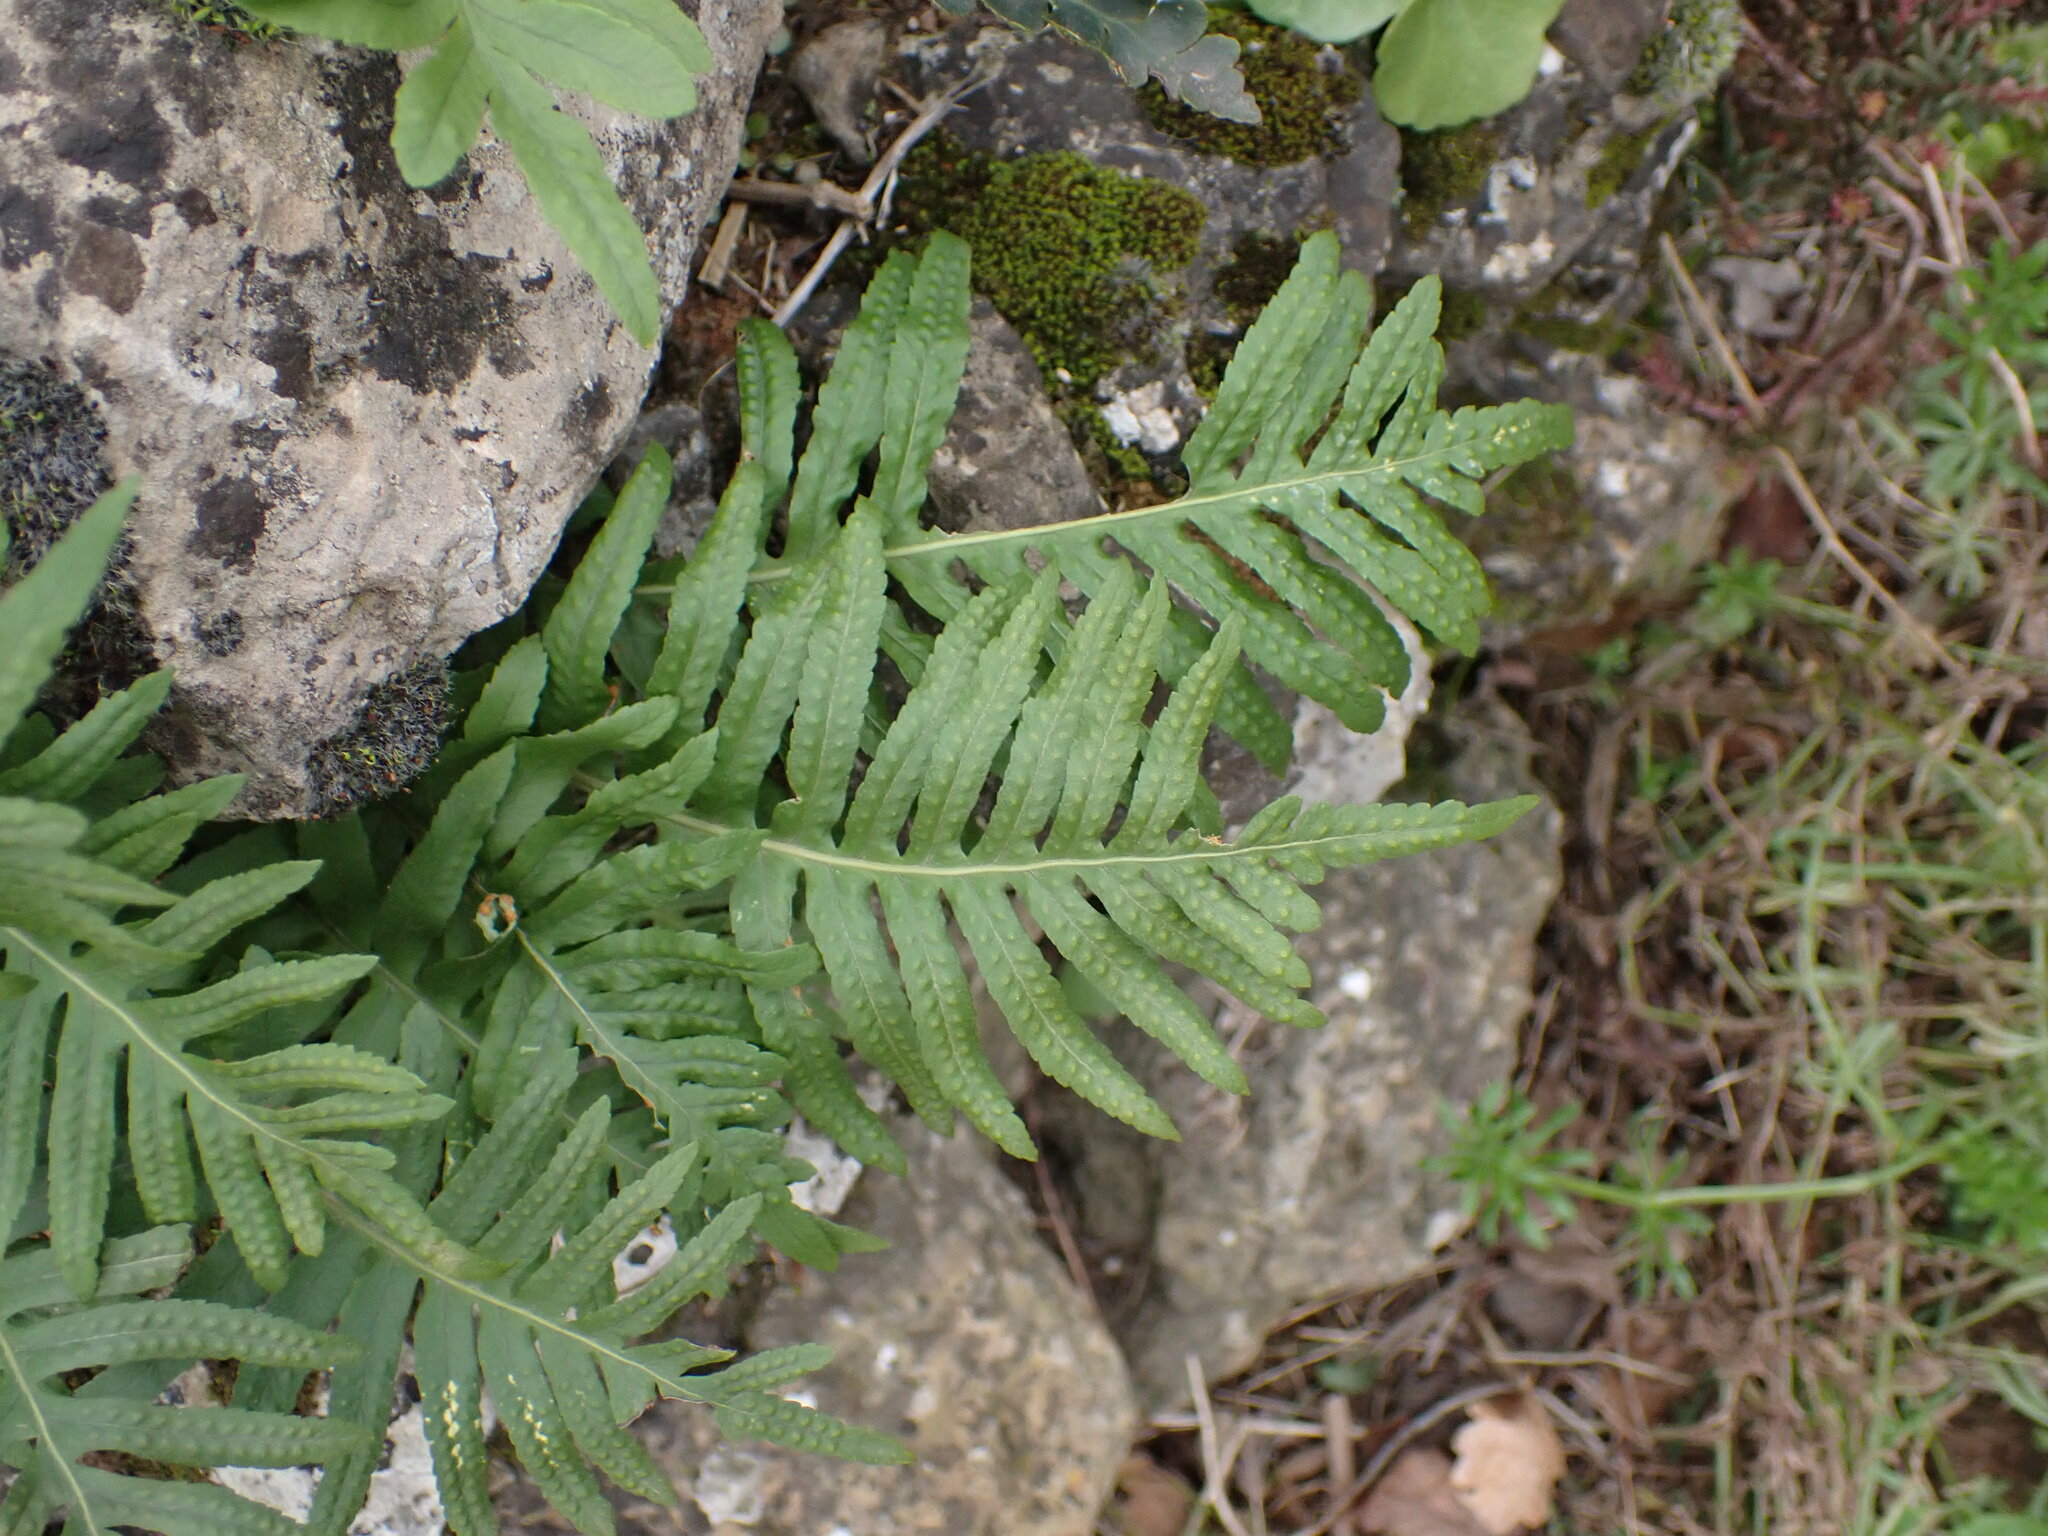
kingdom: Plantae
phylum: Tracheophyta
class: Polypodiopsida
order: Polypodiales
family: Polypodiaceae
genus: Polypodium
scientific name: Polypodium cambricum
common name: Southern polypody
